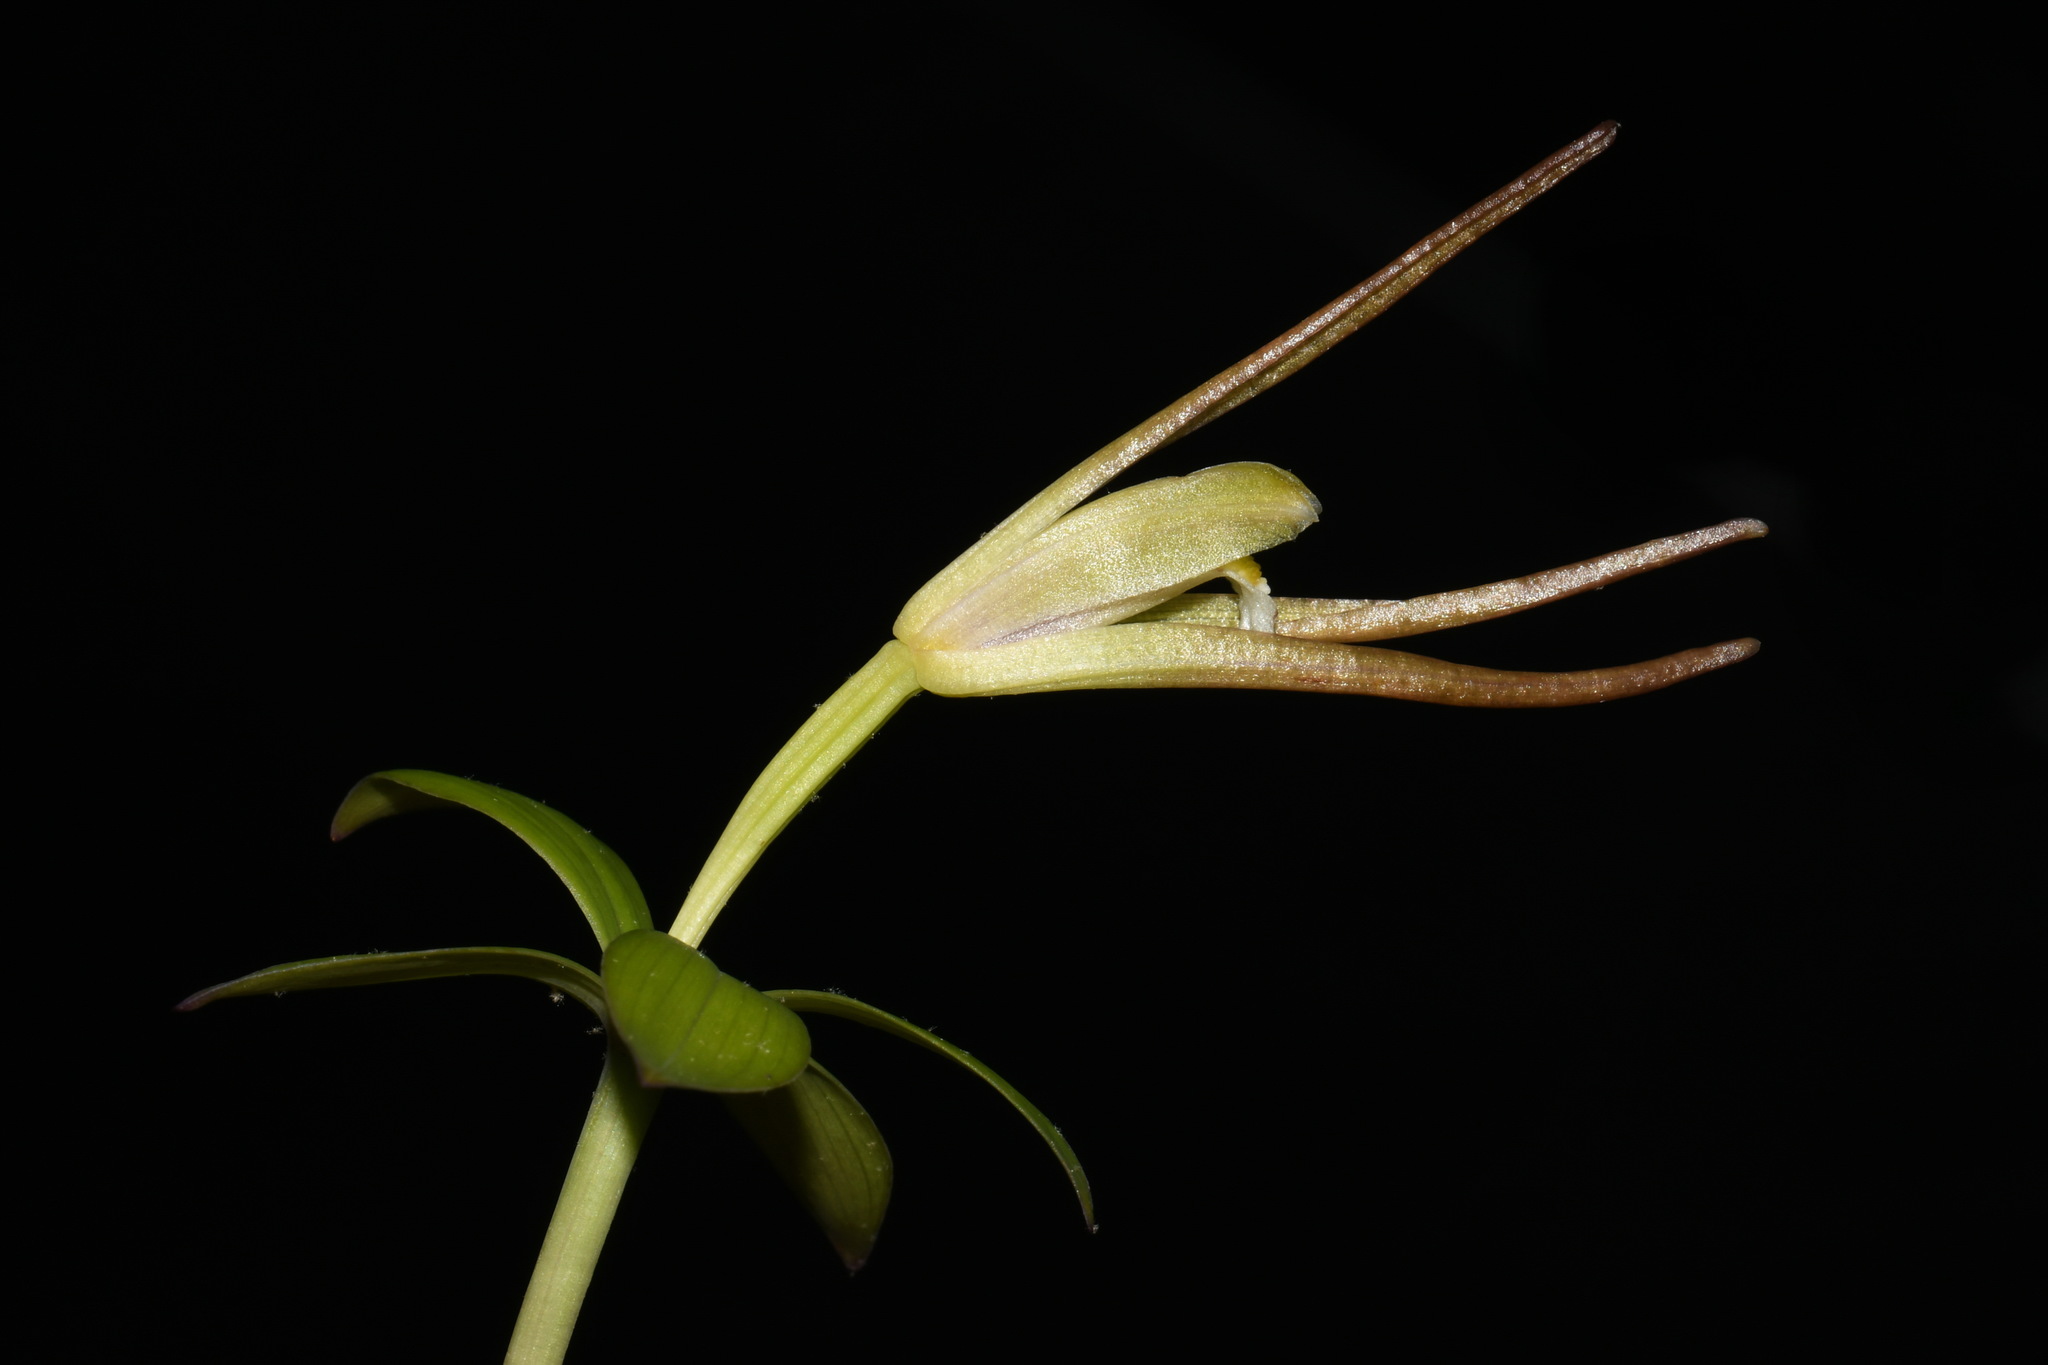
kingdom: Plantae
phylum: Tracheophyta
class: Liliopsida
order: Asparagales
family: Orchidaceae
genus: Isotria
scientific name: Isotria verticillata
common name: Large whorled pogonia
